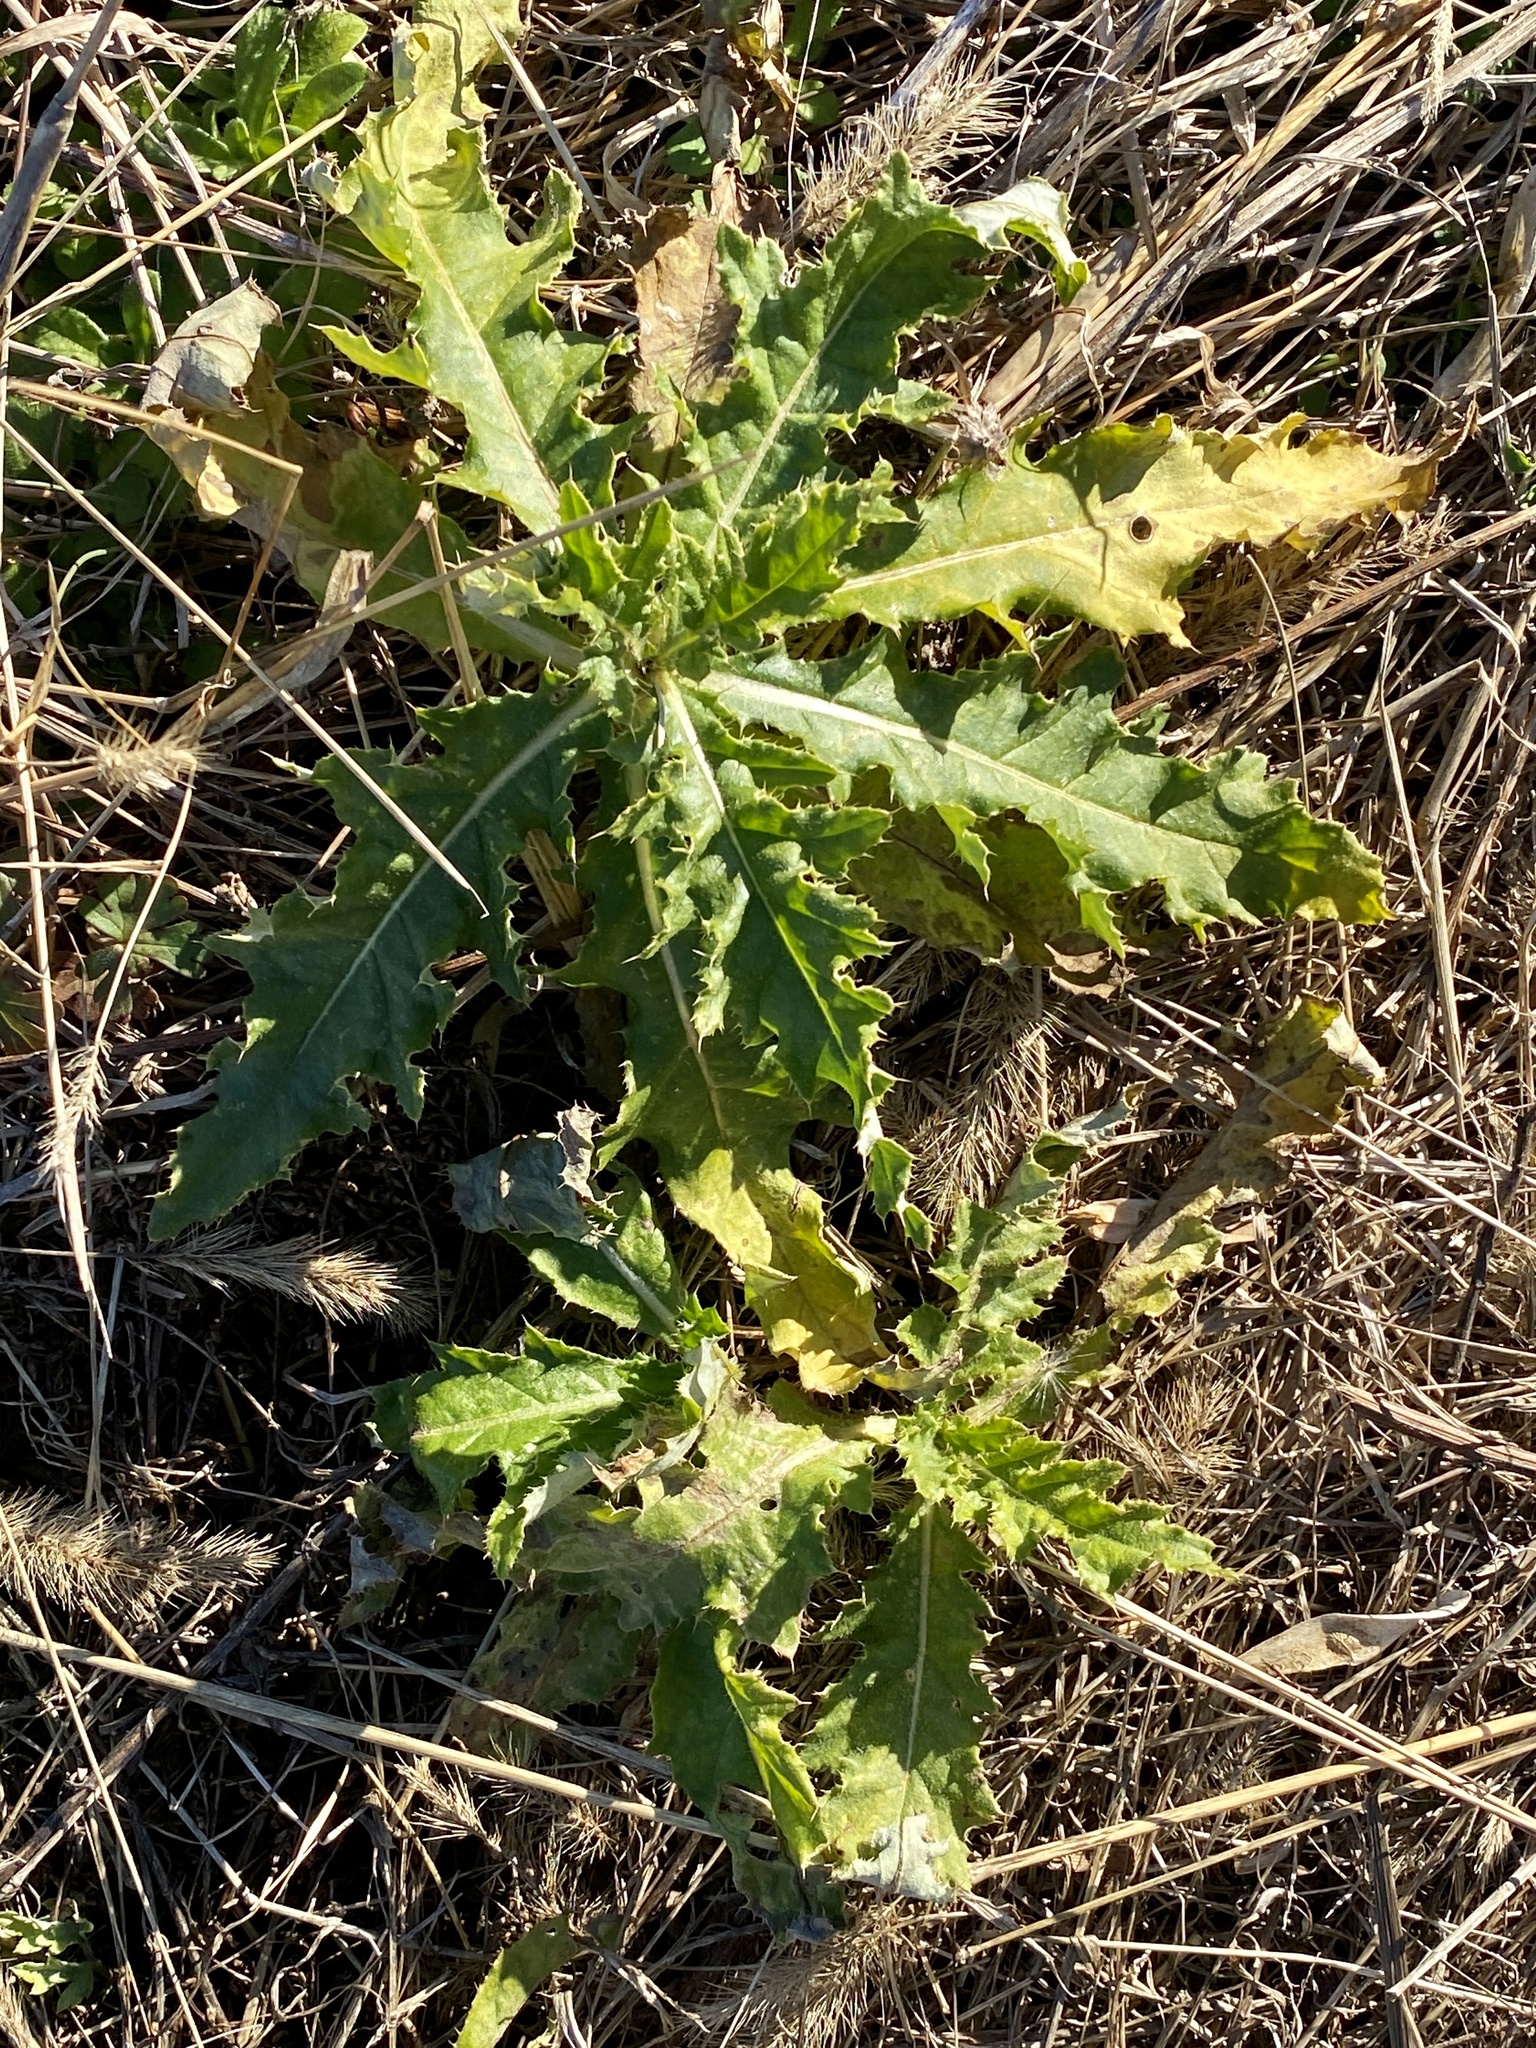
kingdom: Plantae
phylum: Tracheophyta
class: Magnoliopsida
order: Asterales
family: Asteraceae
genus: Cirsium
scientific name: Cirsium arvense
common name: Creeping thistle
